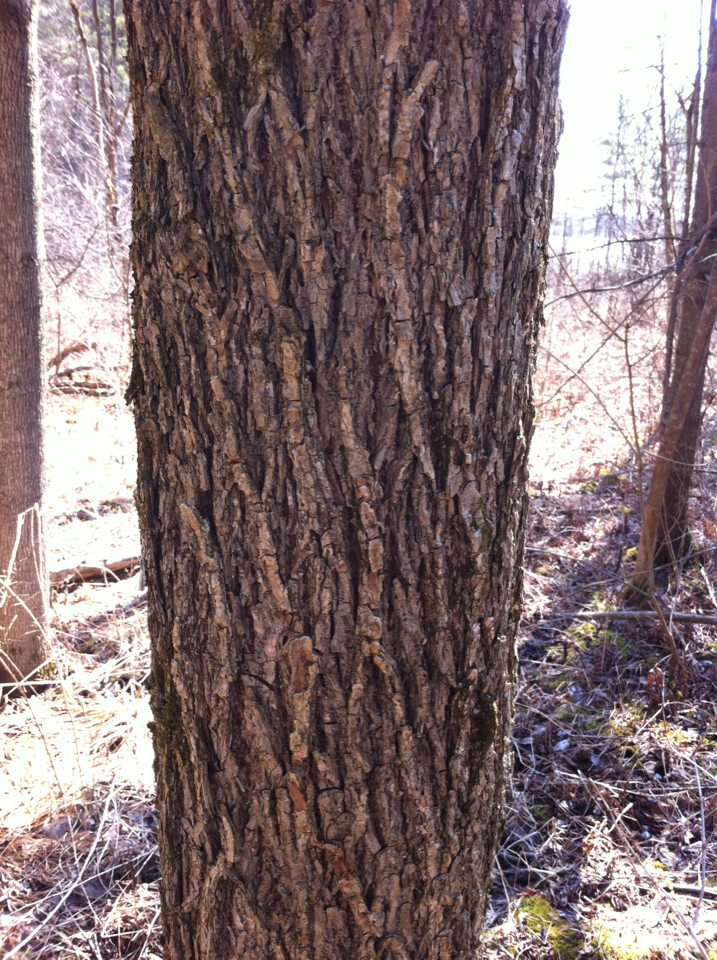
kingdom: Plantae
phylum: Tracheophyta
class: Magnoliopsida
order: Rosales
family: Ulmaceae
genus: Ulmus
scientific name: Ulmus americana
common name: American elm
